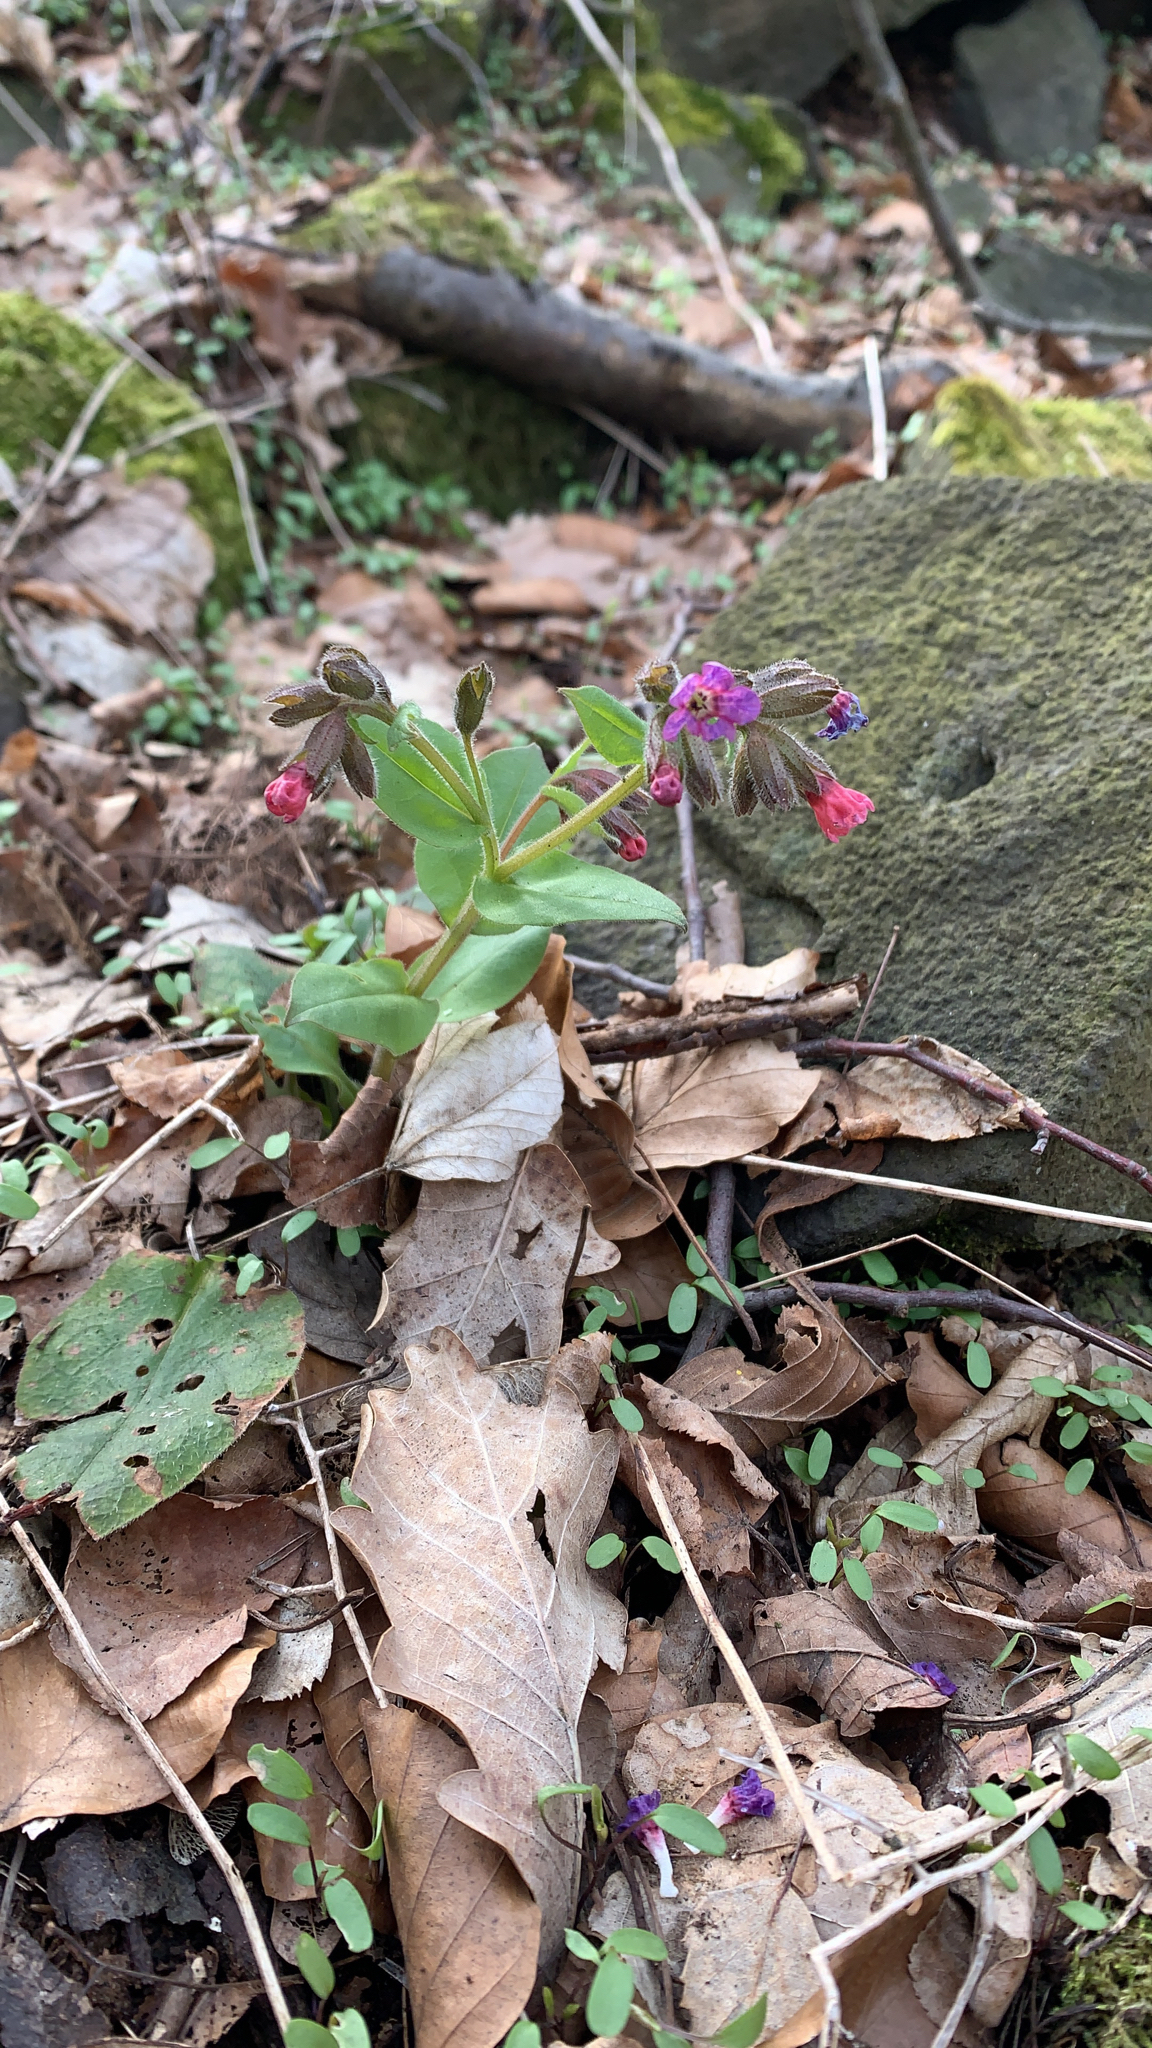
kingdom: Plantae
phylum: Tracheophyta
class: Magnoliopsida
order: Boraginales
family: Boraginaceae
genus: Pulmonaria
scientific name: Pulmonaria obscura
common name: Suffolk lungwort
